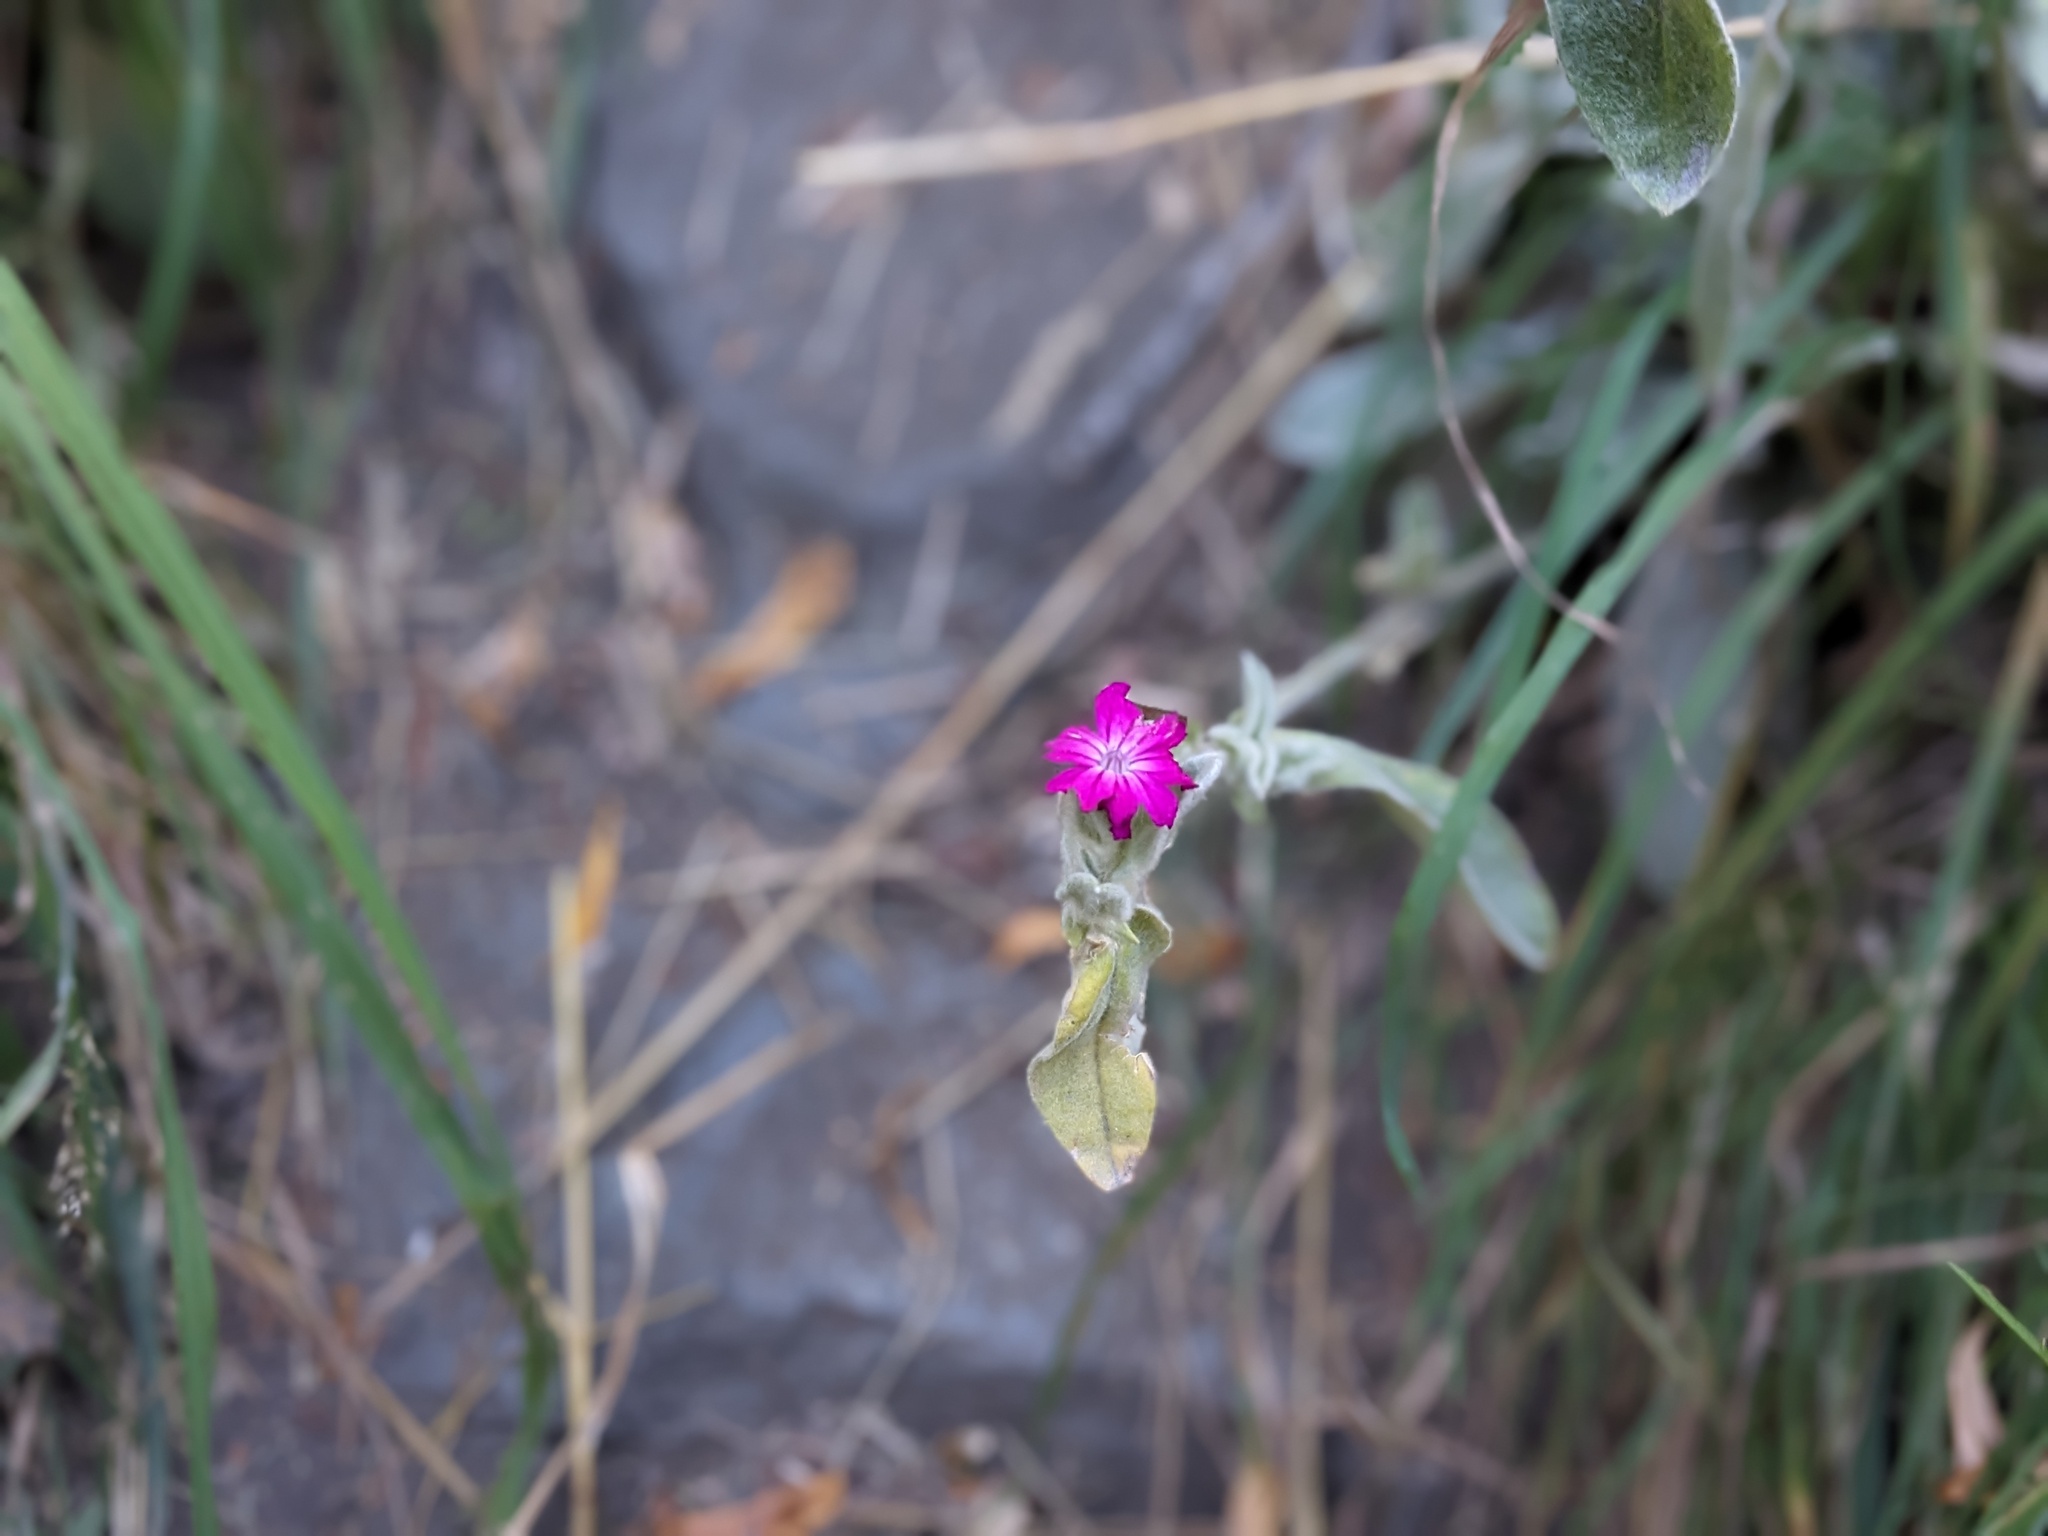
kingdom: Plantae
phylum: Tracheophyta
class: Magnoliopsida
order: Caryophyllales
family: Caryophyllaceae
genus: Silene
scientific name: Silene coronaria
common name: Rose campion
